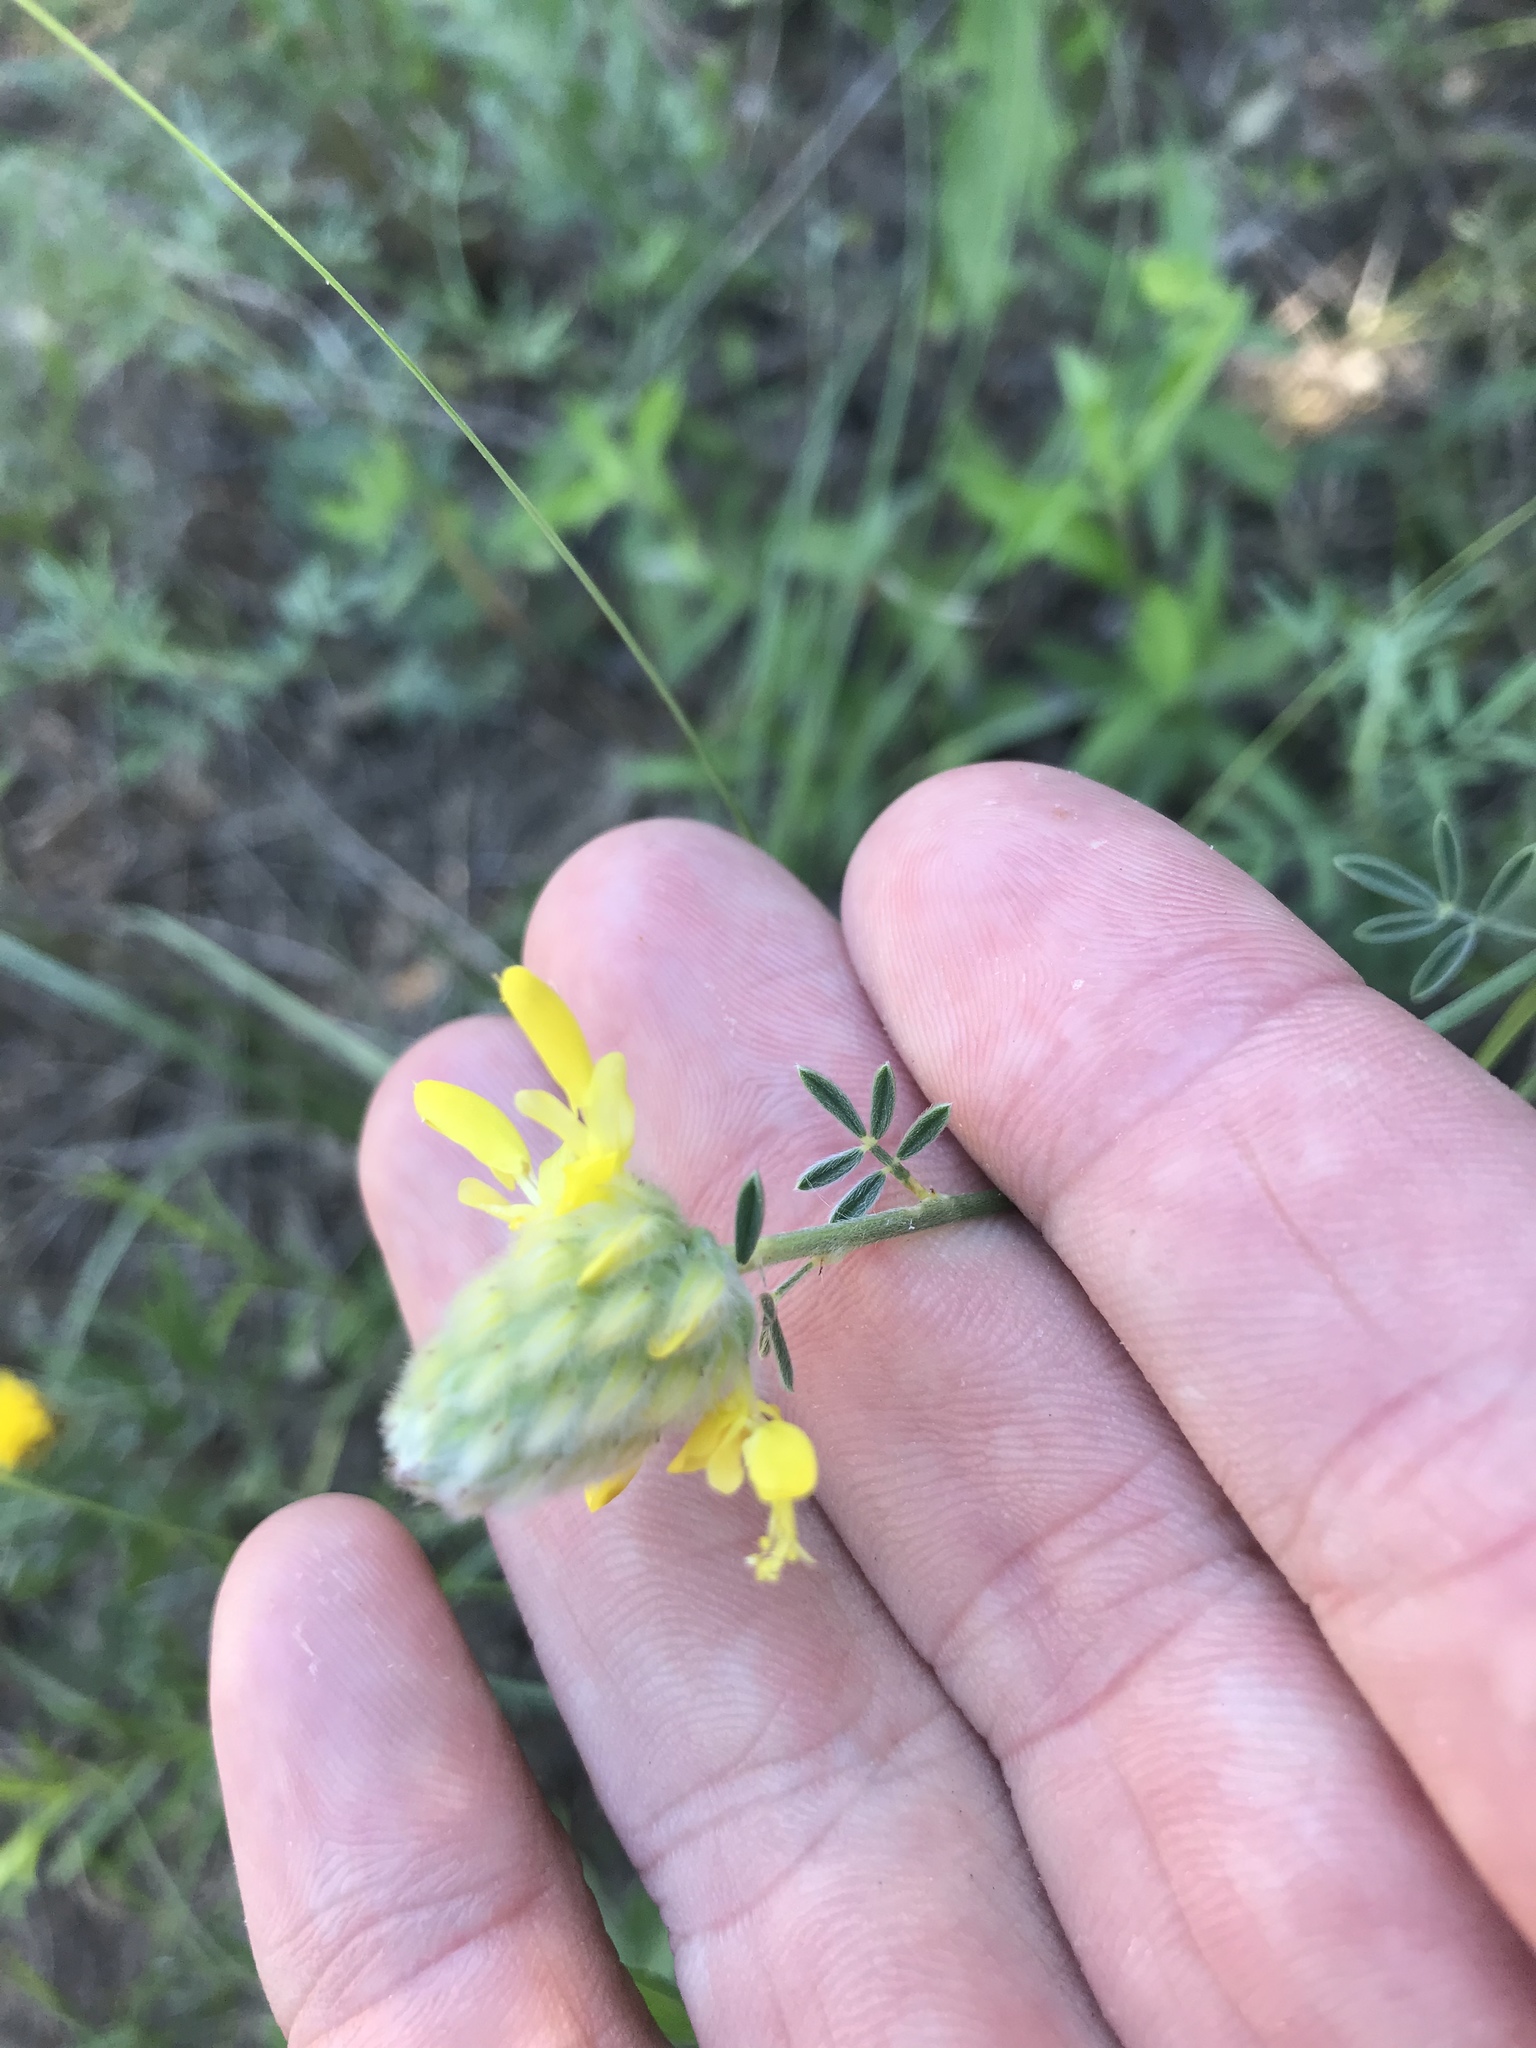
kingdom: Plantae
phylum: Tracheophyta
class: Magnoliopsida
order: Fabales
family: Fabaceae
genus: Dalea
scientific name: Dalea aurea
